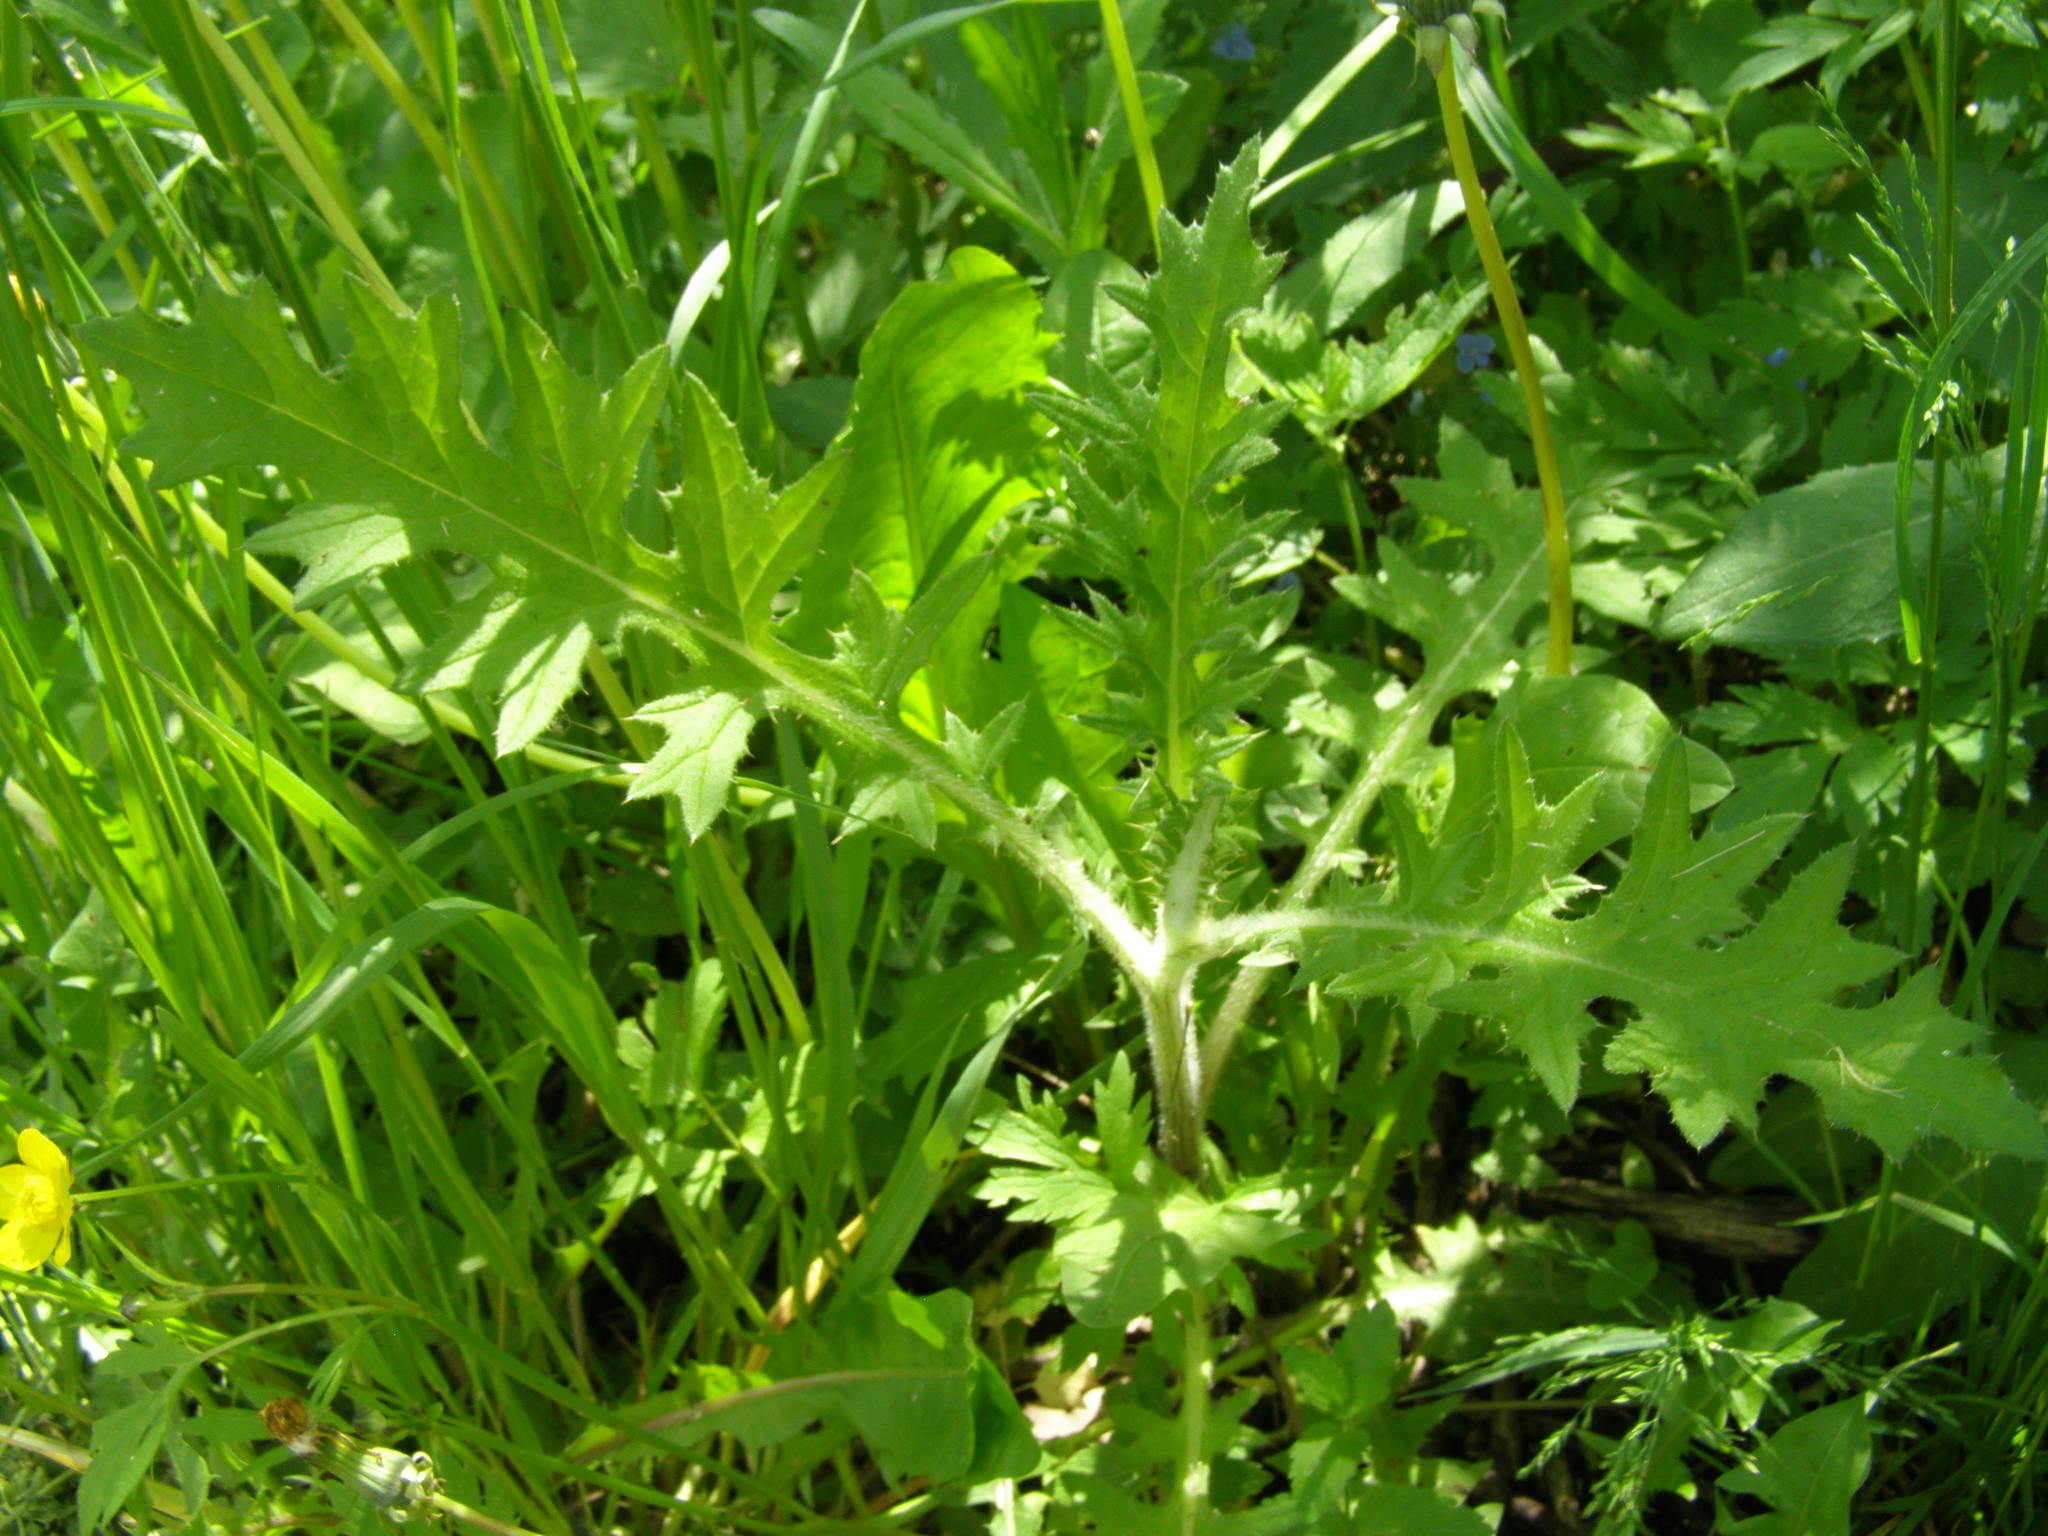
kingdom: Plantae
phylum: Tracheophyta
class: Magnoliopsida
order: Asterales
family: Asteraceae
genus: Cirsium
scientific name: Cirsium vulgare
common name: Bull thistle
